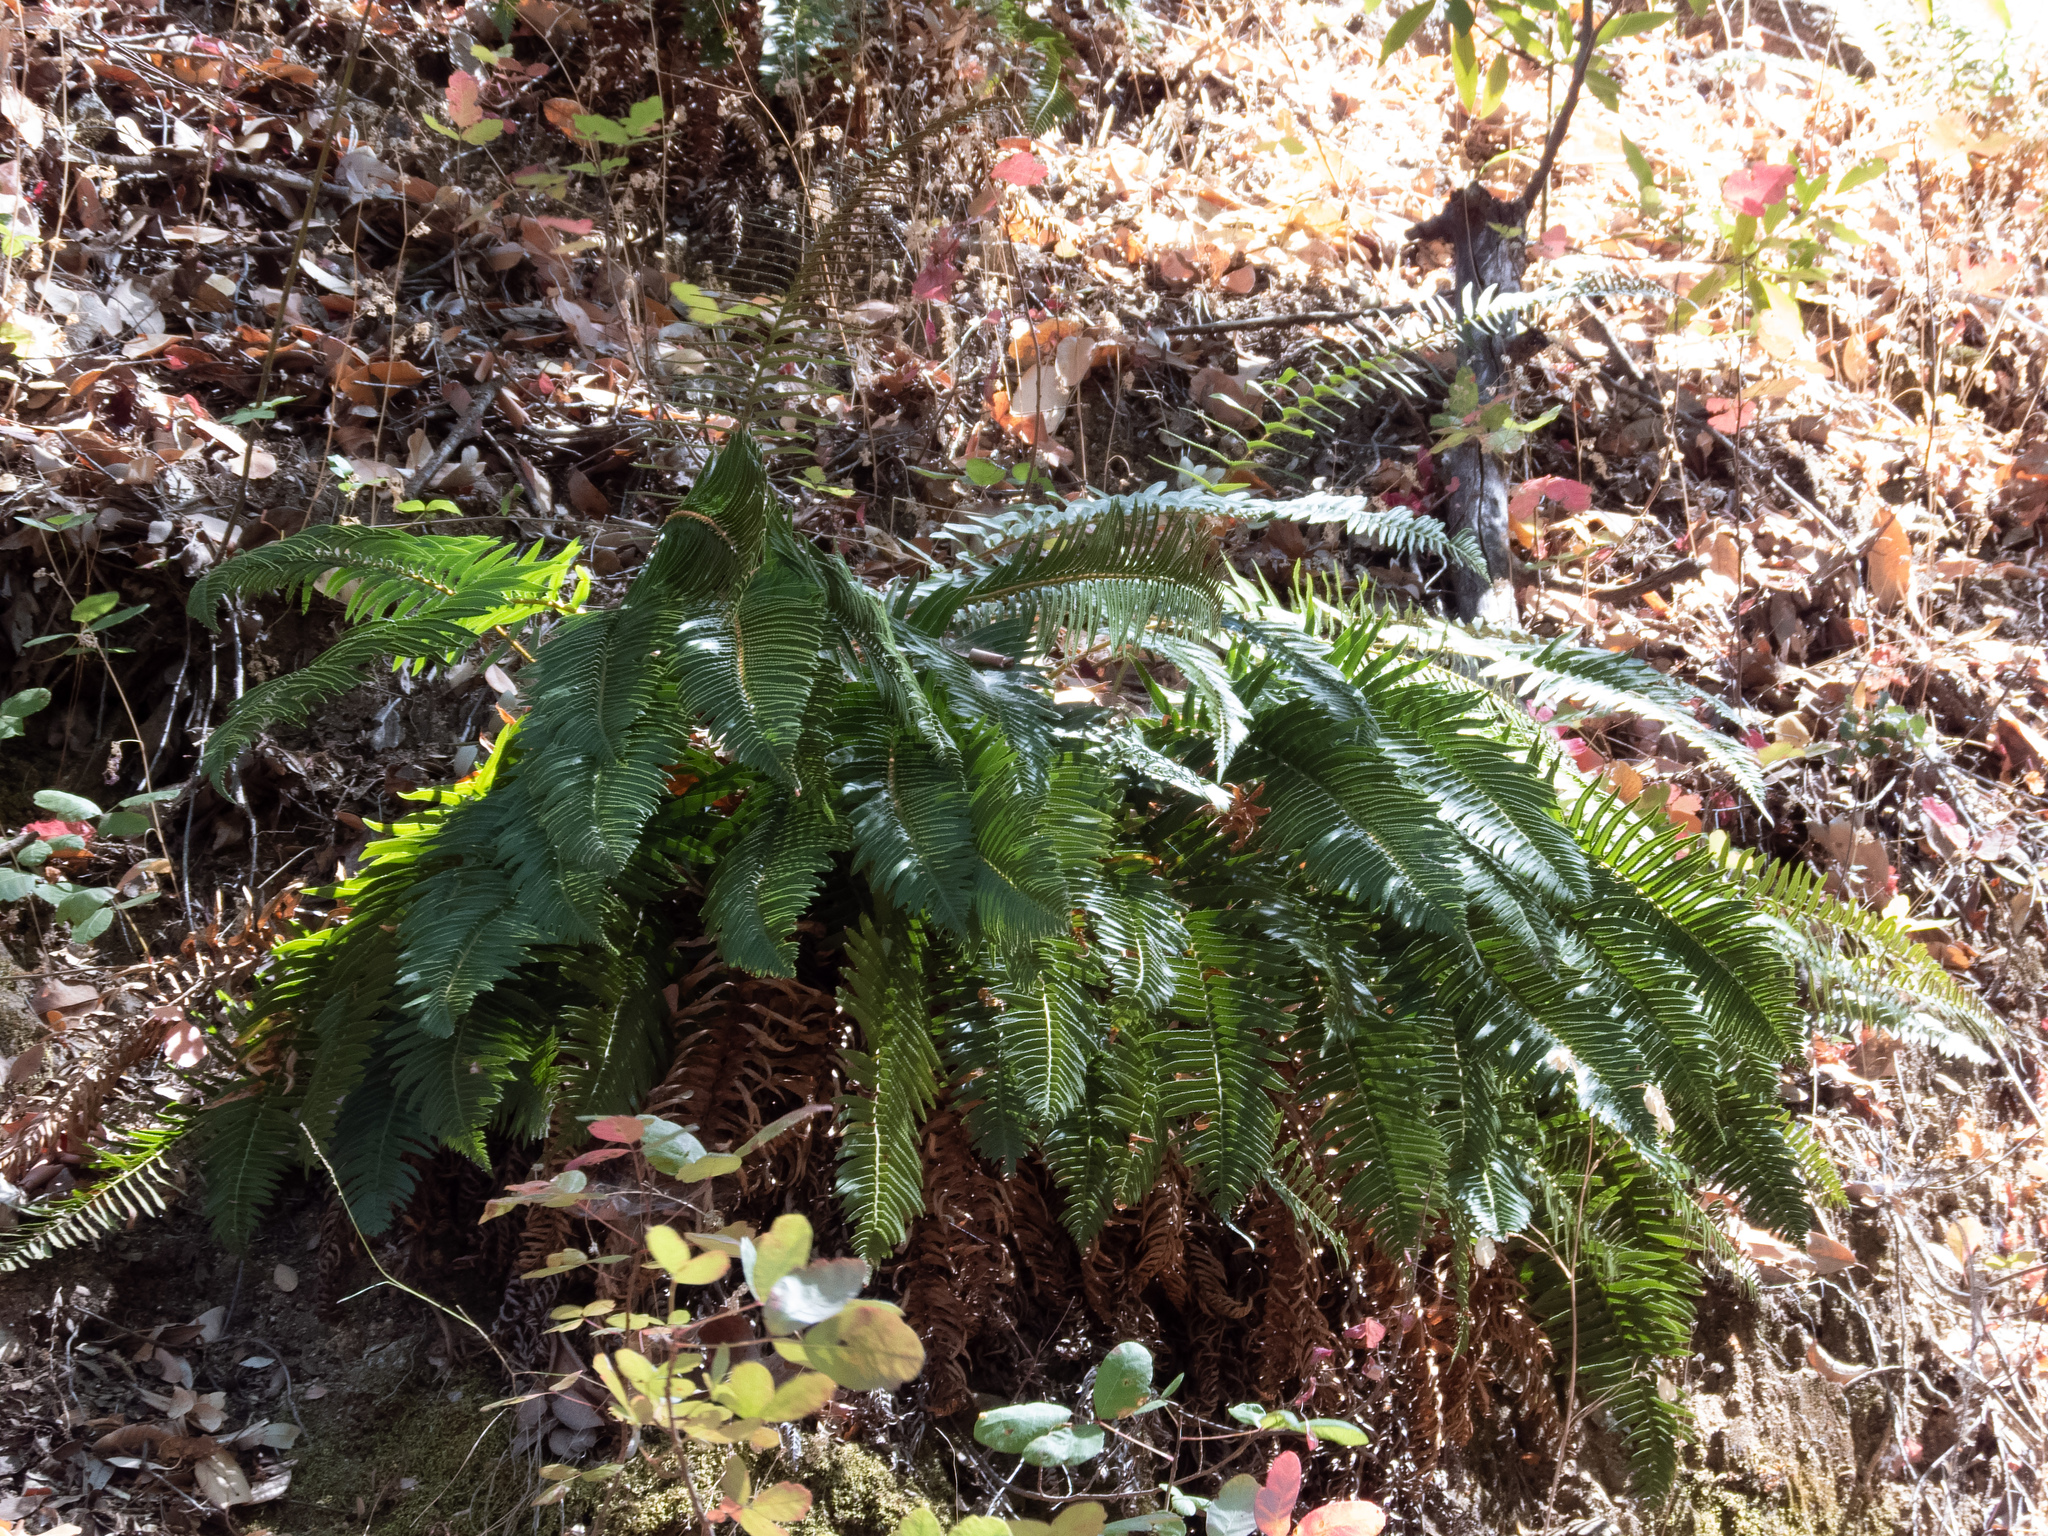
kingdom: Plantae
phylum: Tracheophyta
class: Polypodiopsida
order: Polypodiales
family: Dryopteridaceae
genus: Polystichum
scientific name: Polystichum munitum
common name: Western sword-fern
